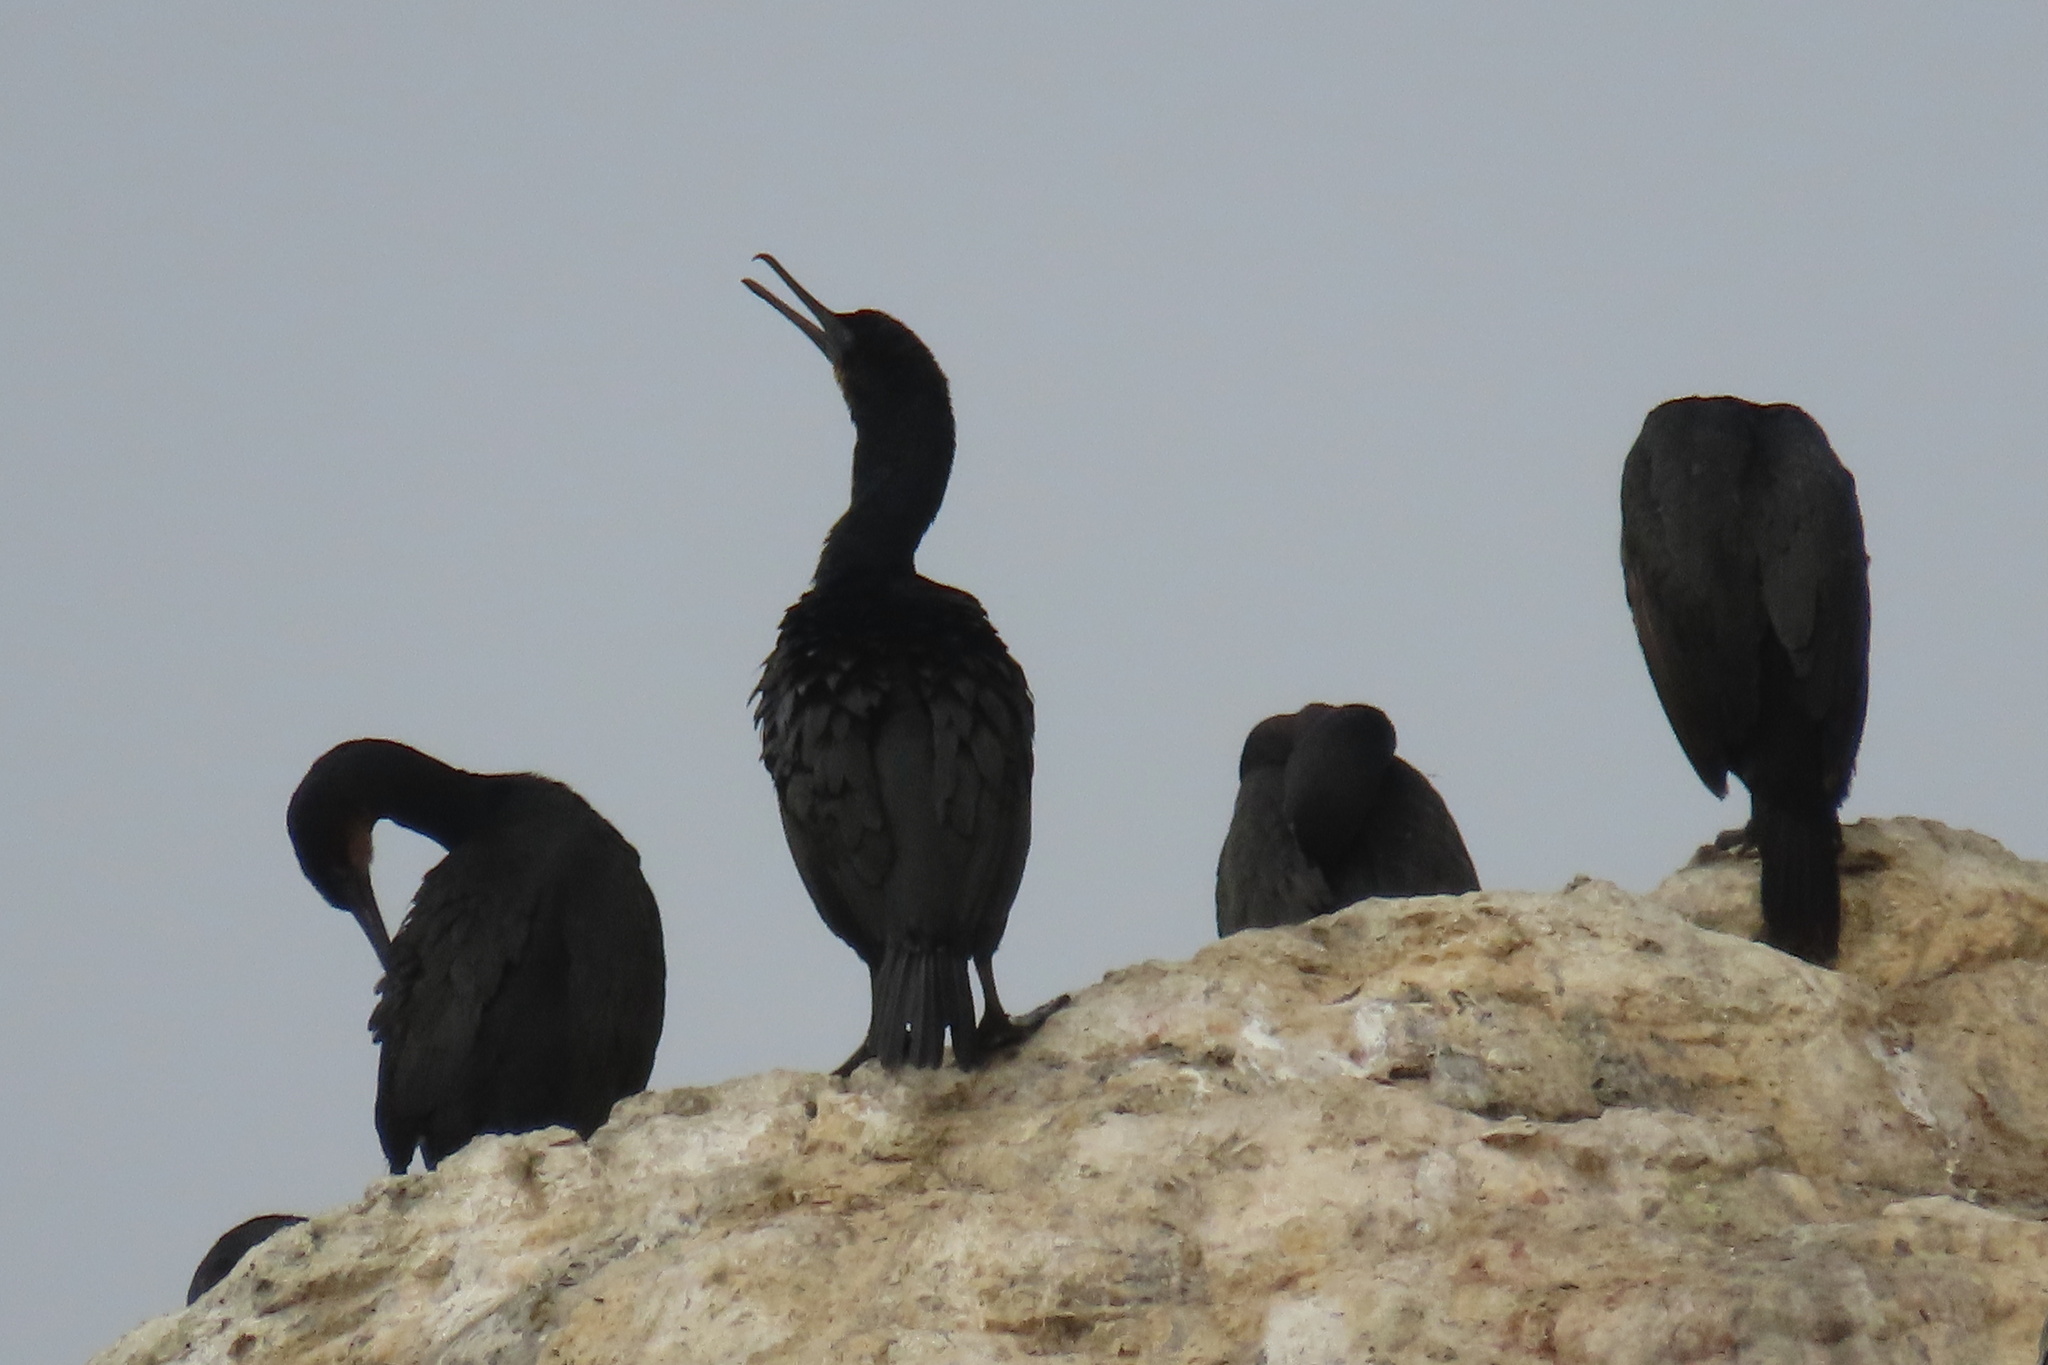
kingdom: Animalia
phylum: Chordata
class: Aves
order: Suliformes
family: Phalacrocoracidae
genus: Phalacrocorax
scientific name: Phalacrocorax pelagicus
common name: Pelagic cormorant
